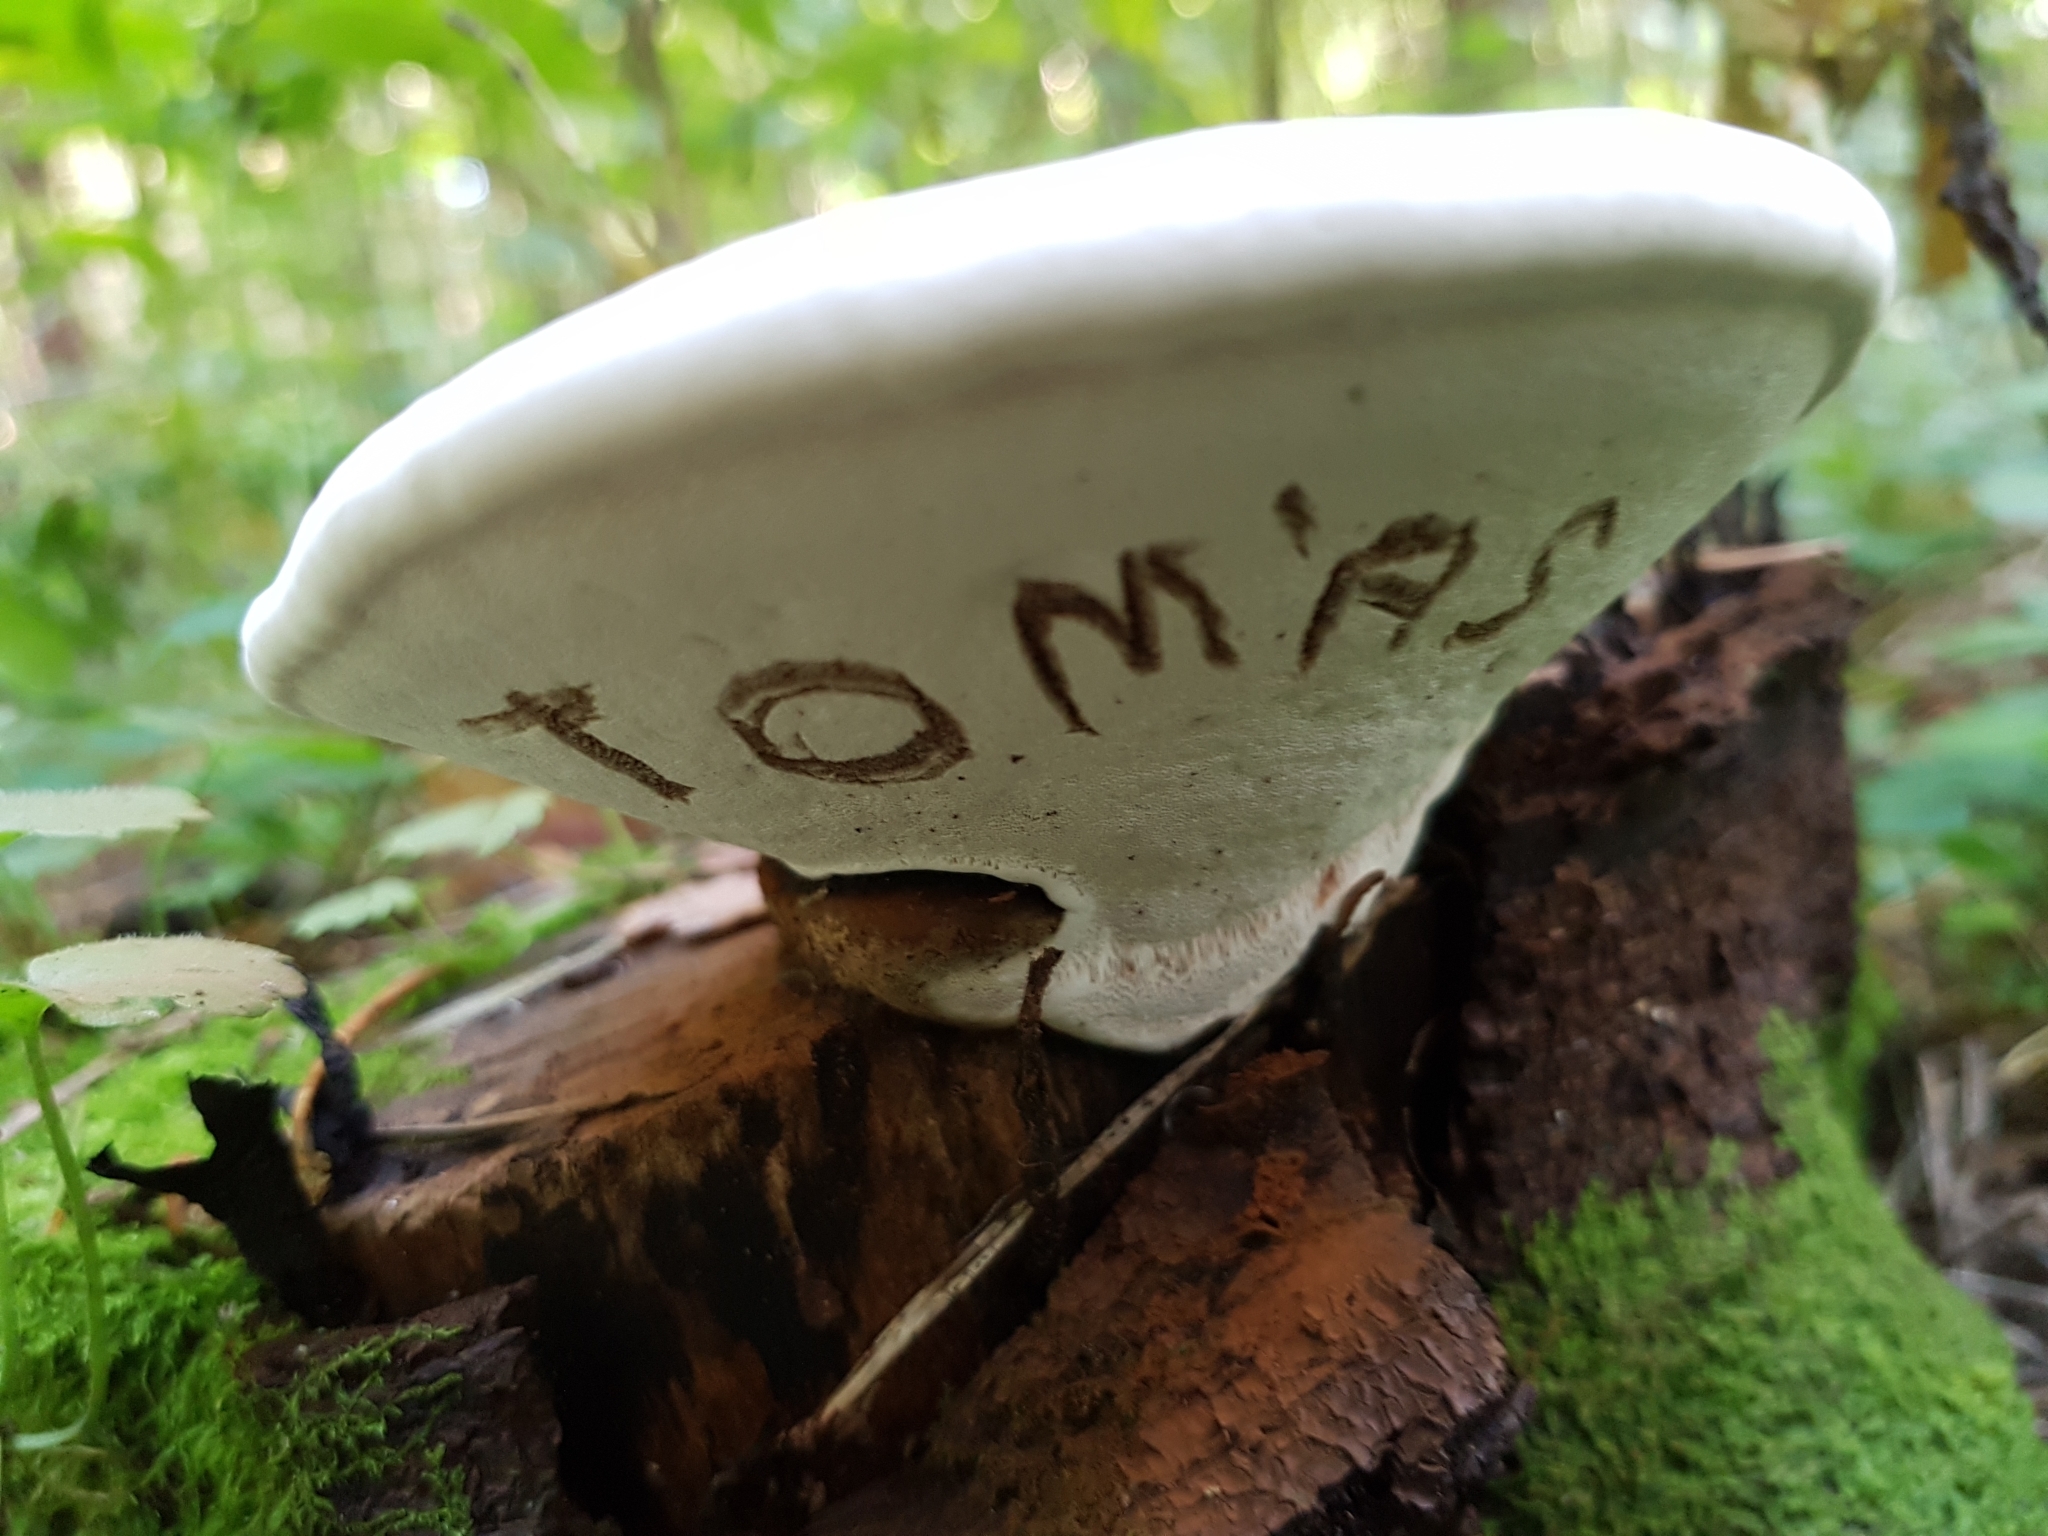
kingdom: Fungi
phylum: Basidiomycota
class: Agaricomycetes
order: Polyporales
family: Polyporaceae
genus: Ganoderma
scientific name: Ganoderma applanatum
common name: Artist's bracket
